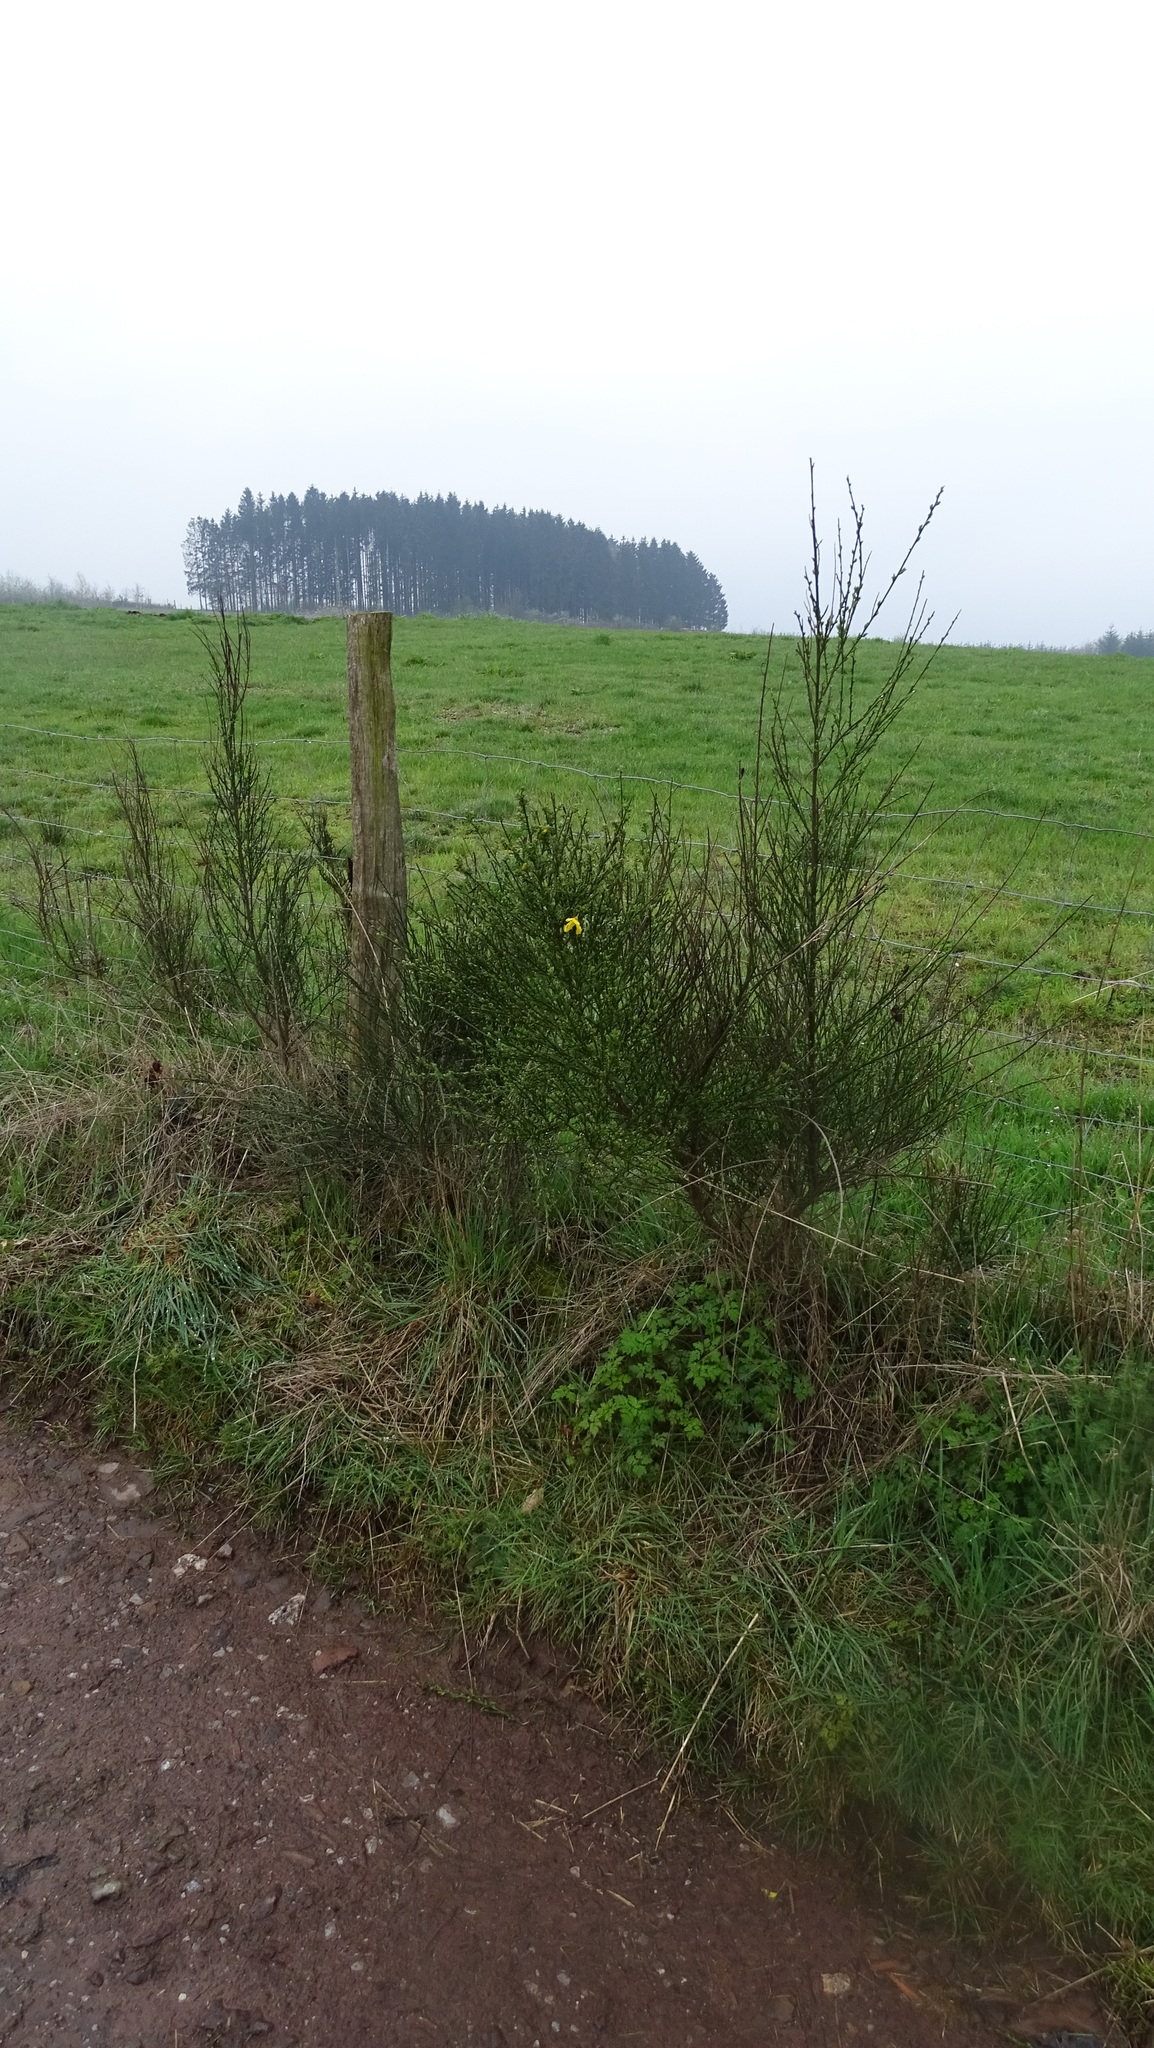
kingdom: Plantae
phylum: Tracheophyta
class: Magnoliopsida
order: Fabales
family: Fabaceae
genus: Cytisus
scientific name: Cytisus scoparius
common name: Scotch broom
